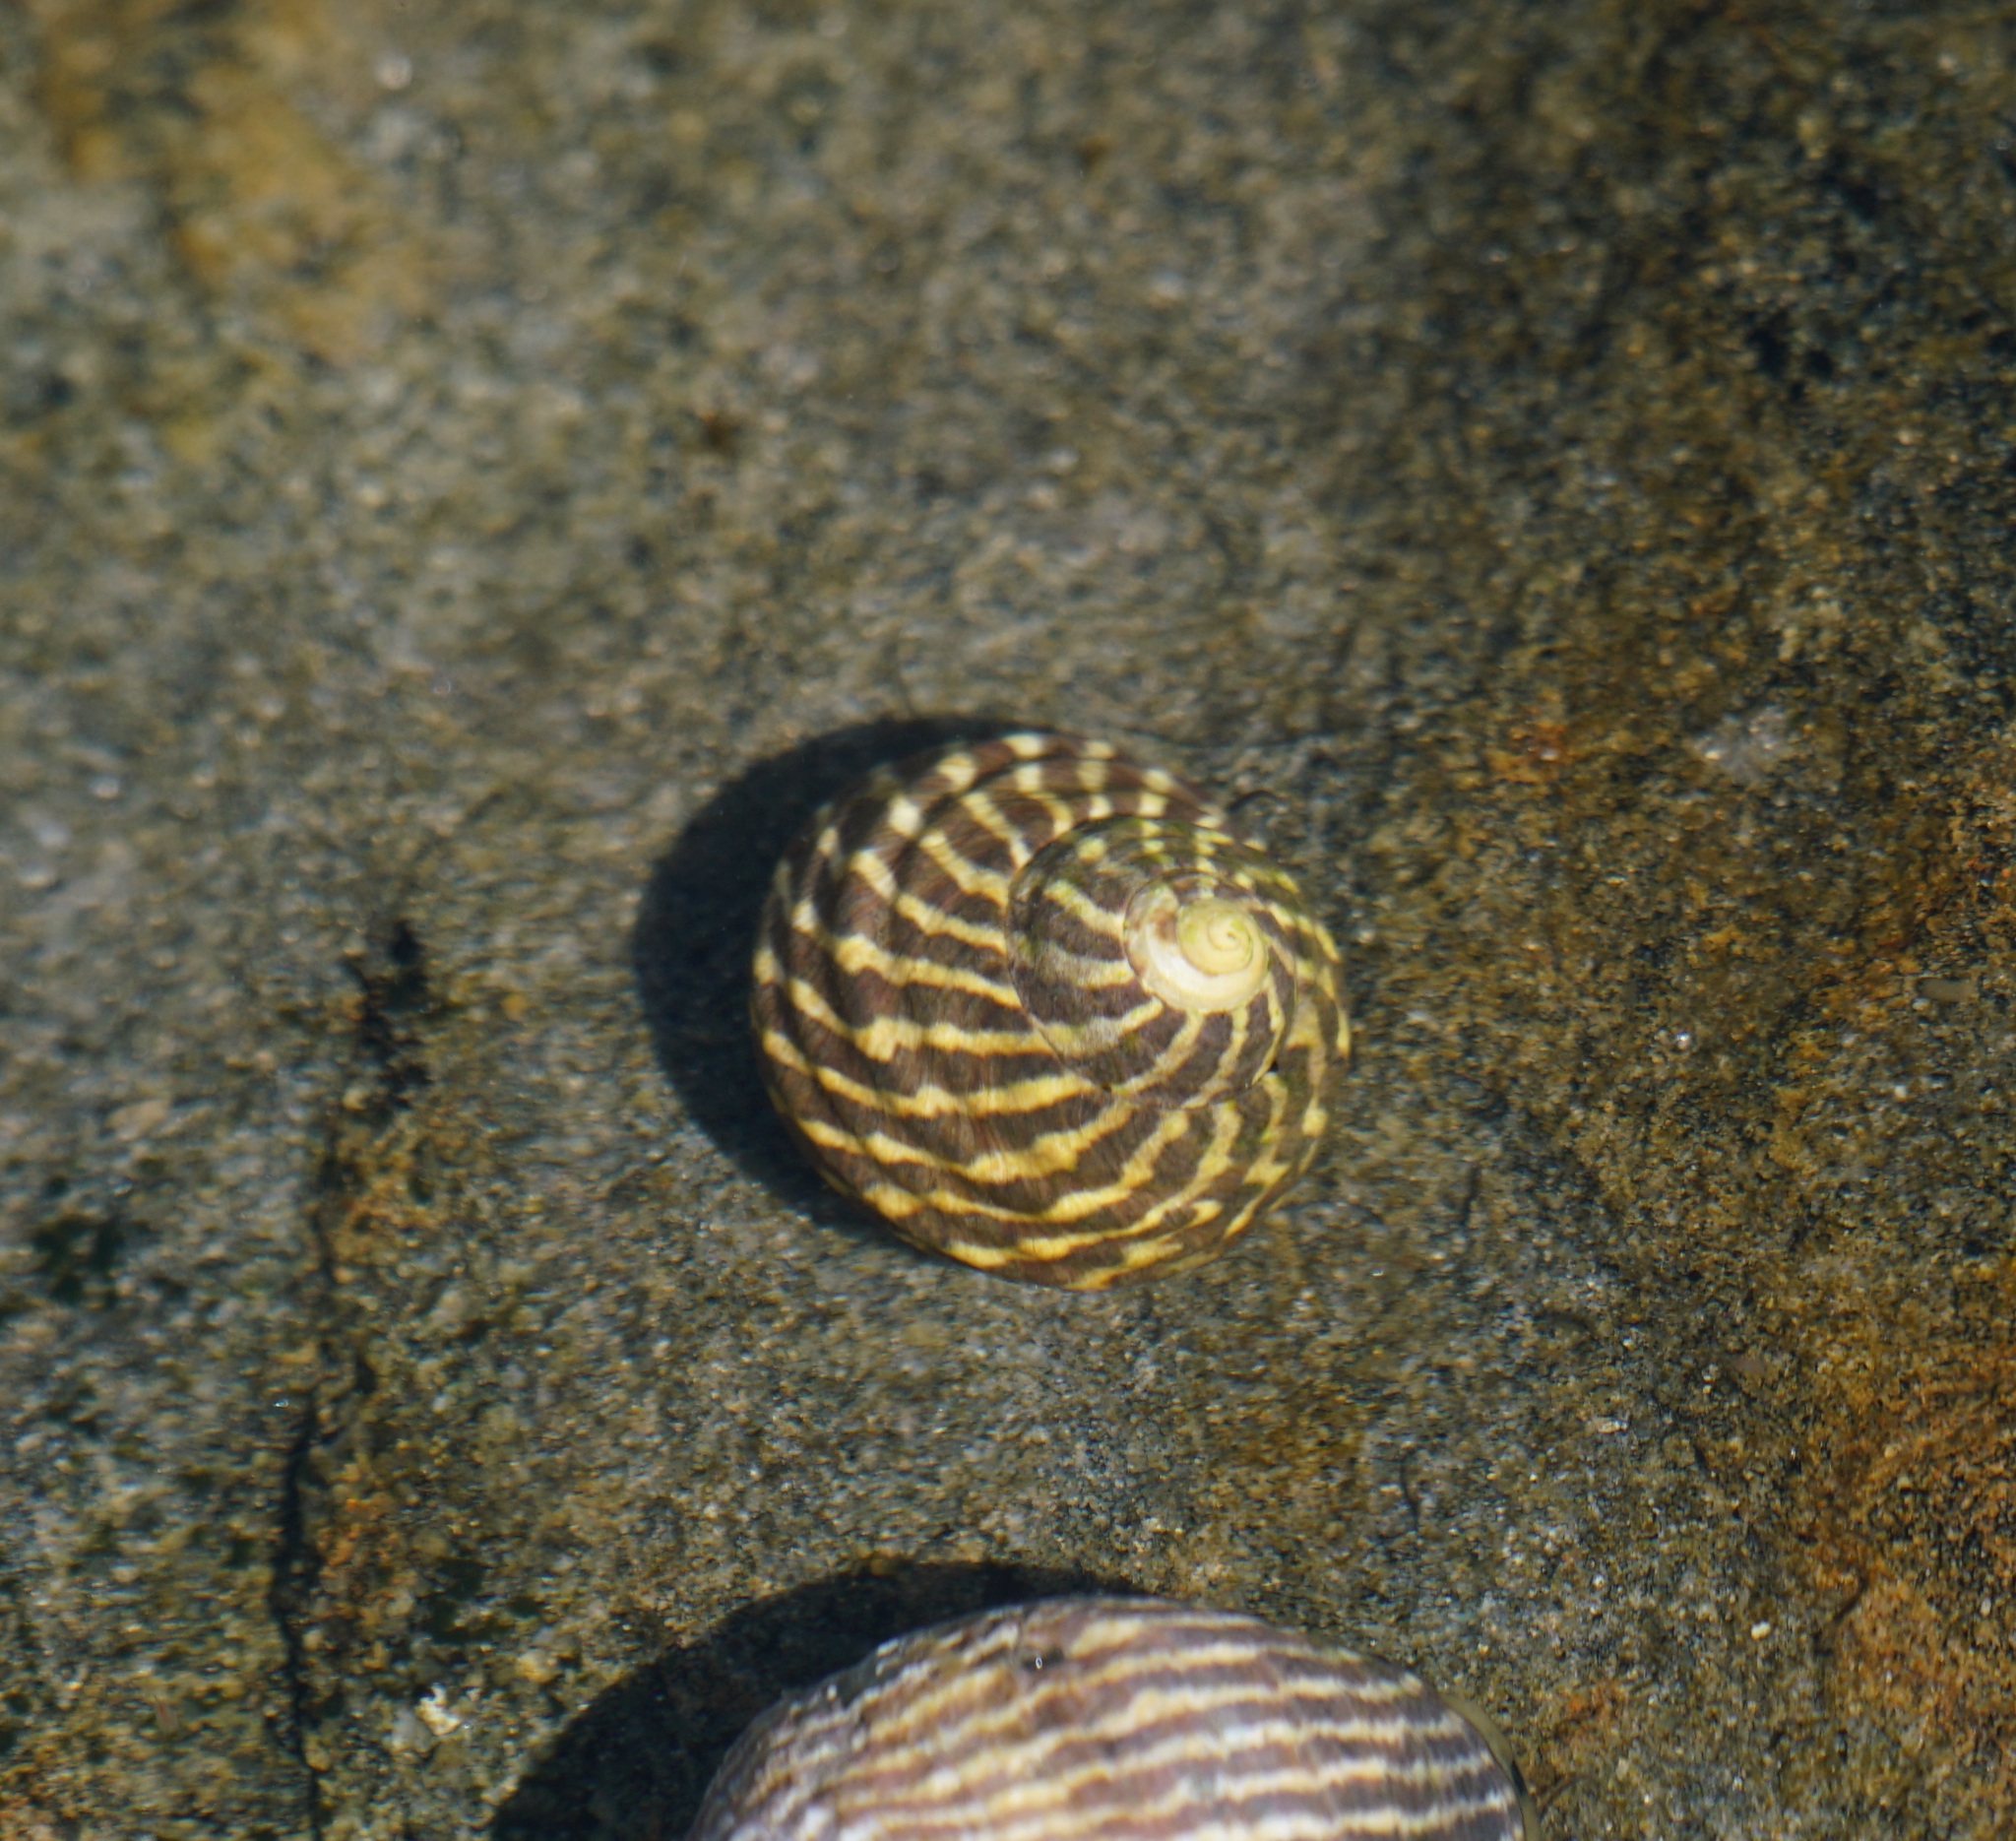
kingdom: Animalia
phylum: Mollusca
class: Gastropoda
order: Trochida
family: Trochidae
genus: Austrocochlea
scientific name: Austrocochlea porcata
